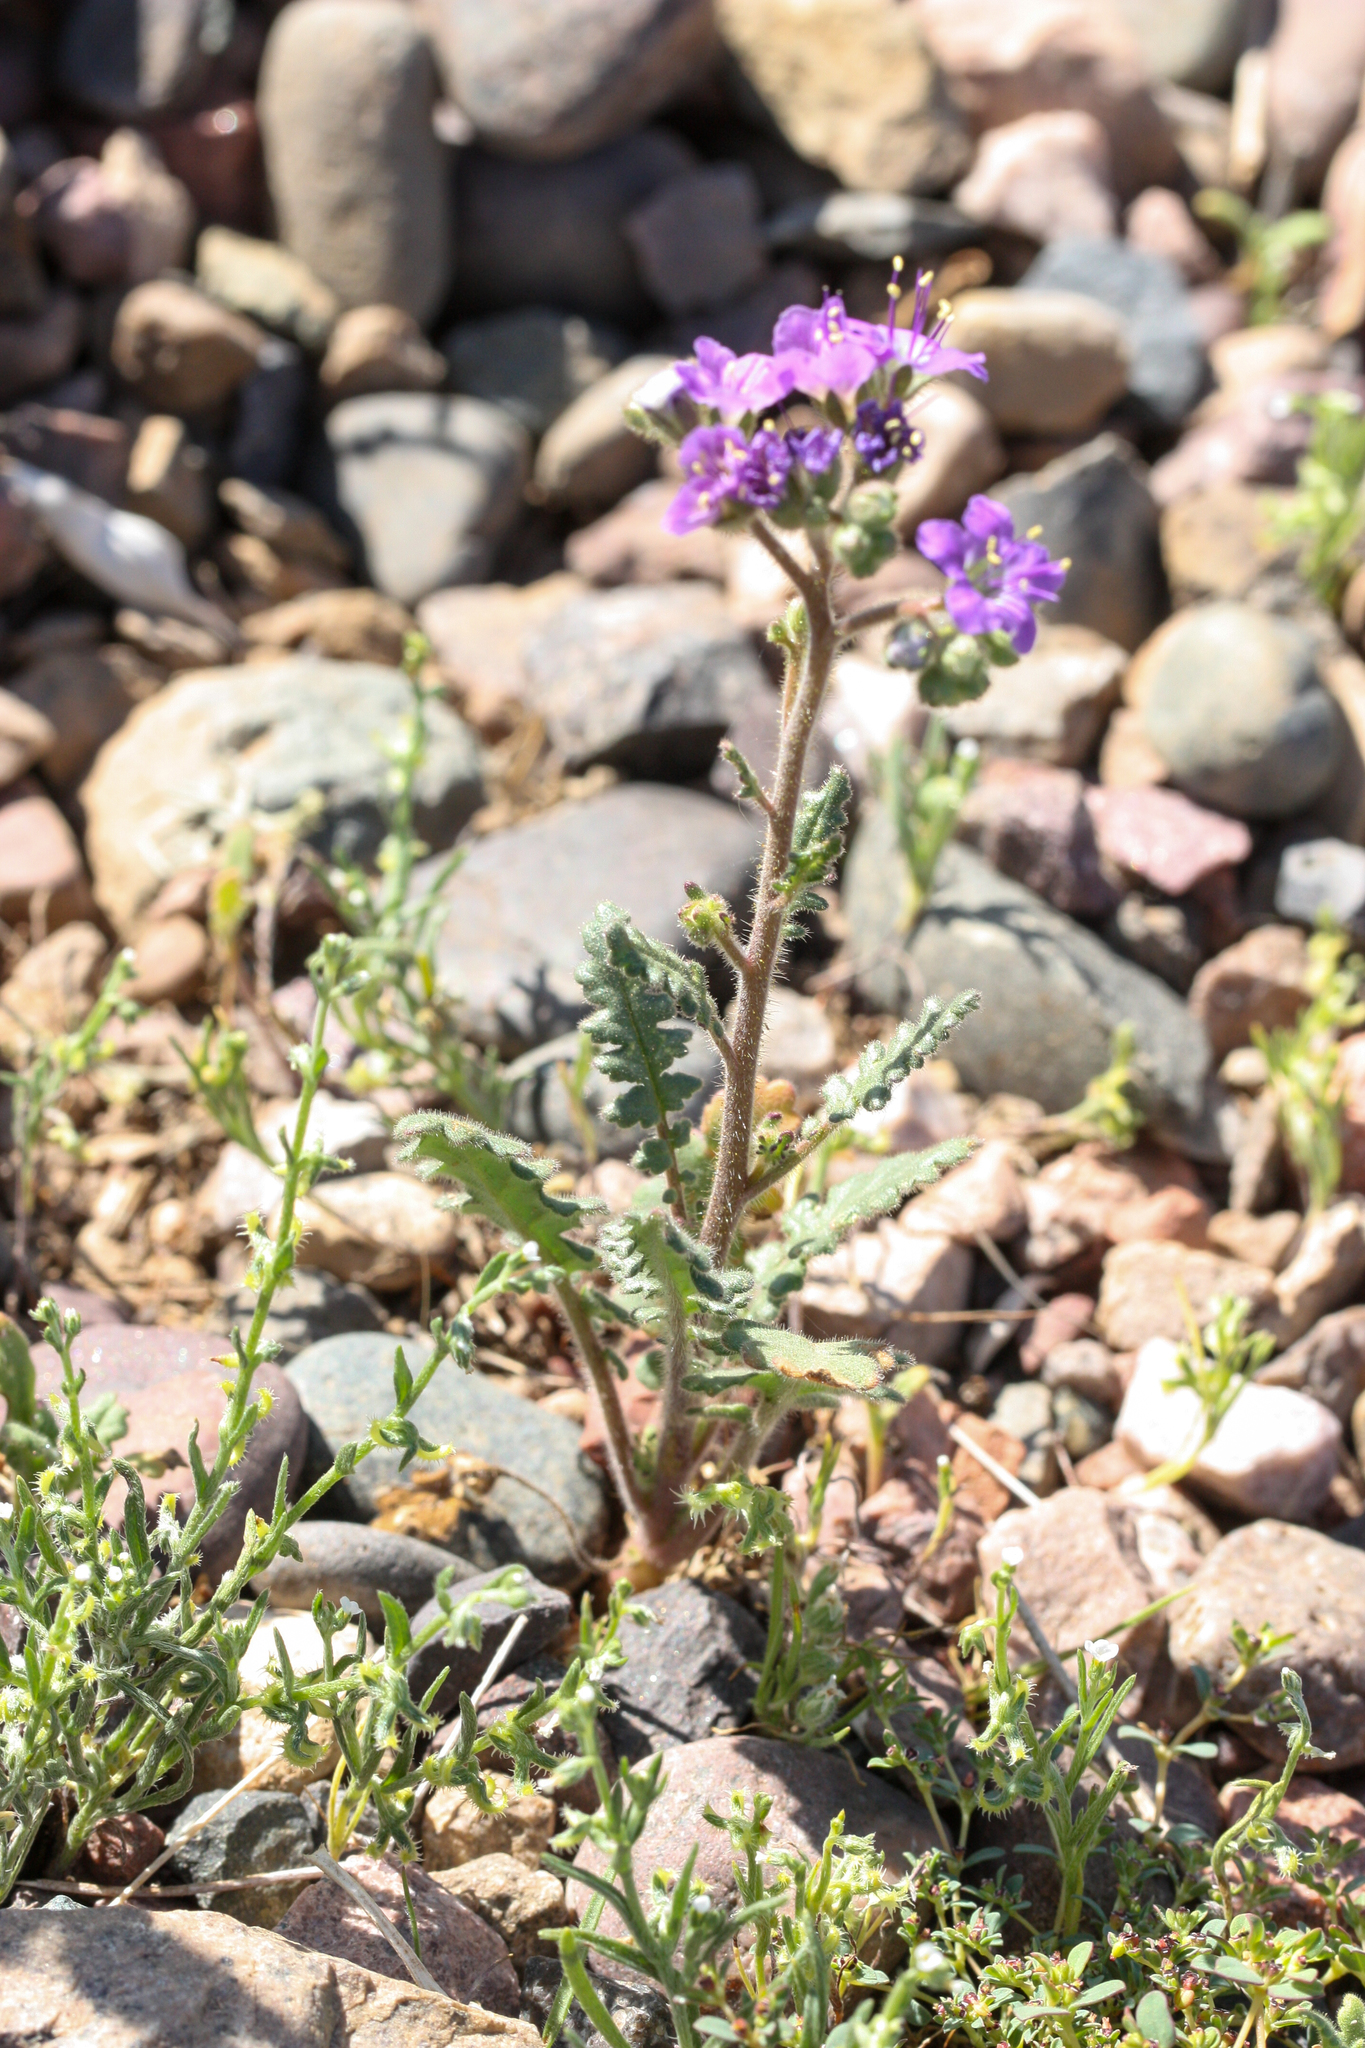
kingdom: Plantae
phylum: Tracheophyta
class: Magnoliopsida
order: Boraginales
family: Hydrophyllaceae
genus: Phacelia
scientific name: Phacelia crenulata
